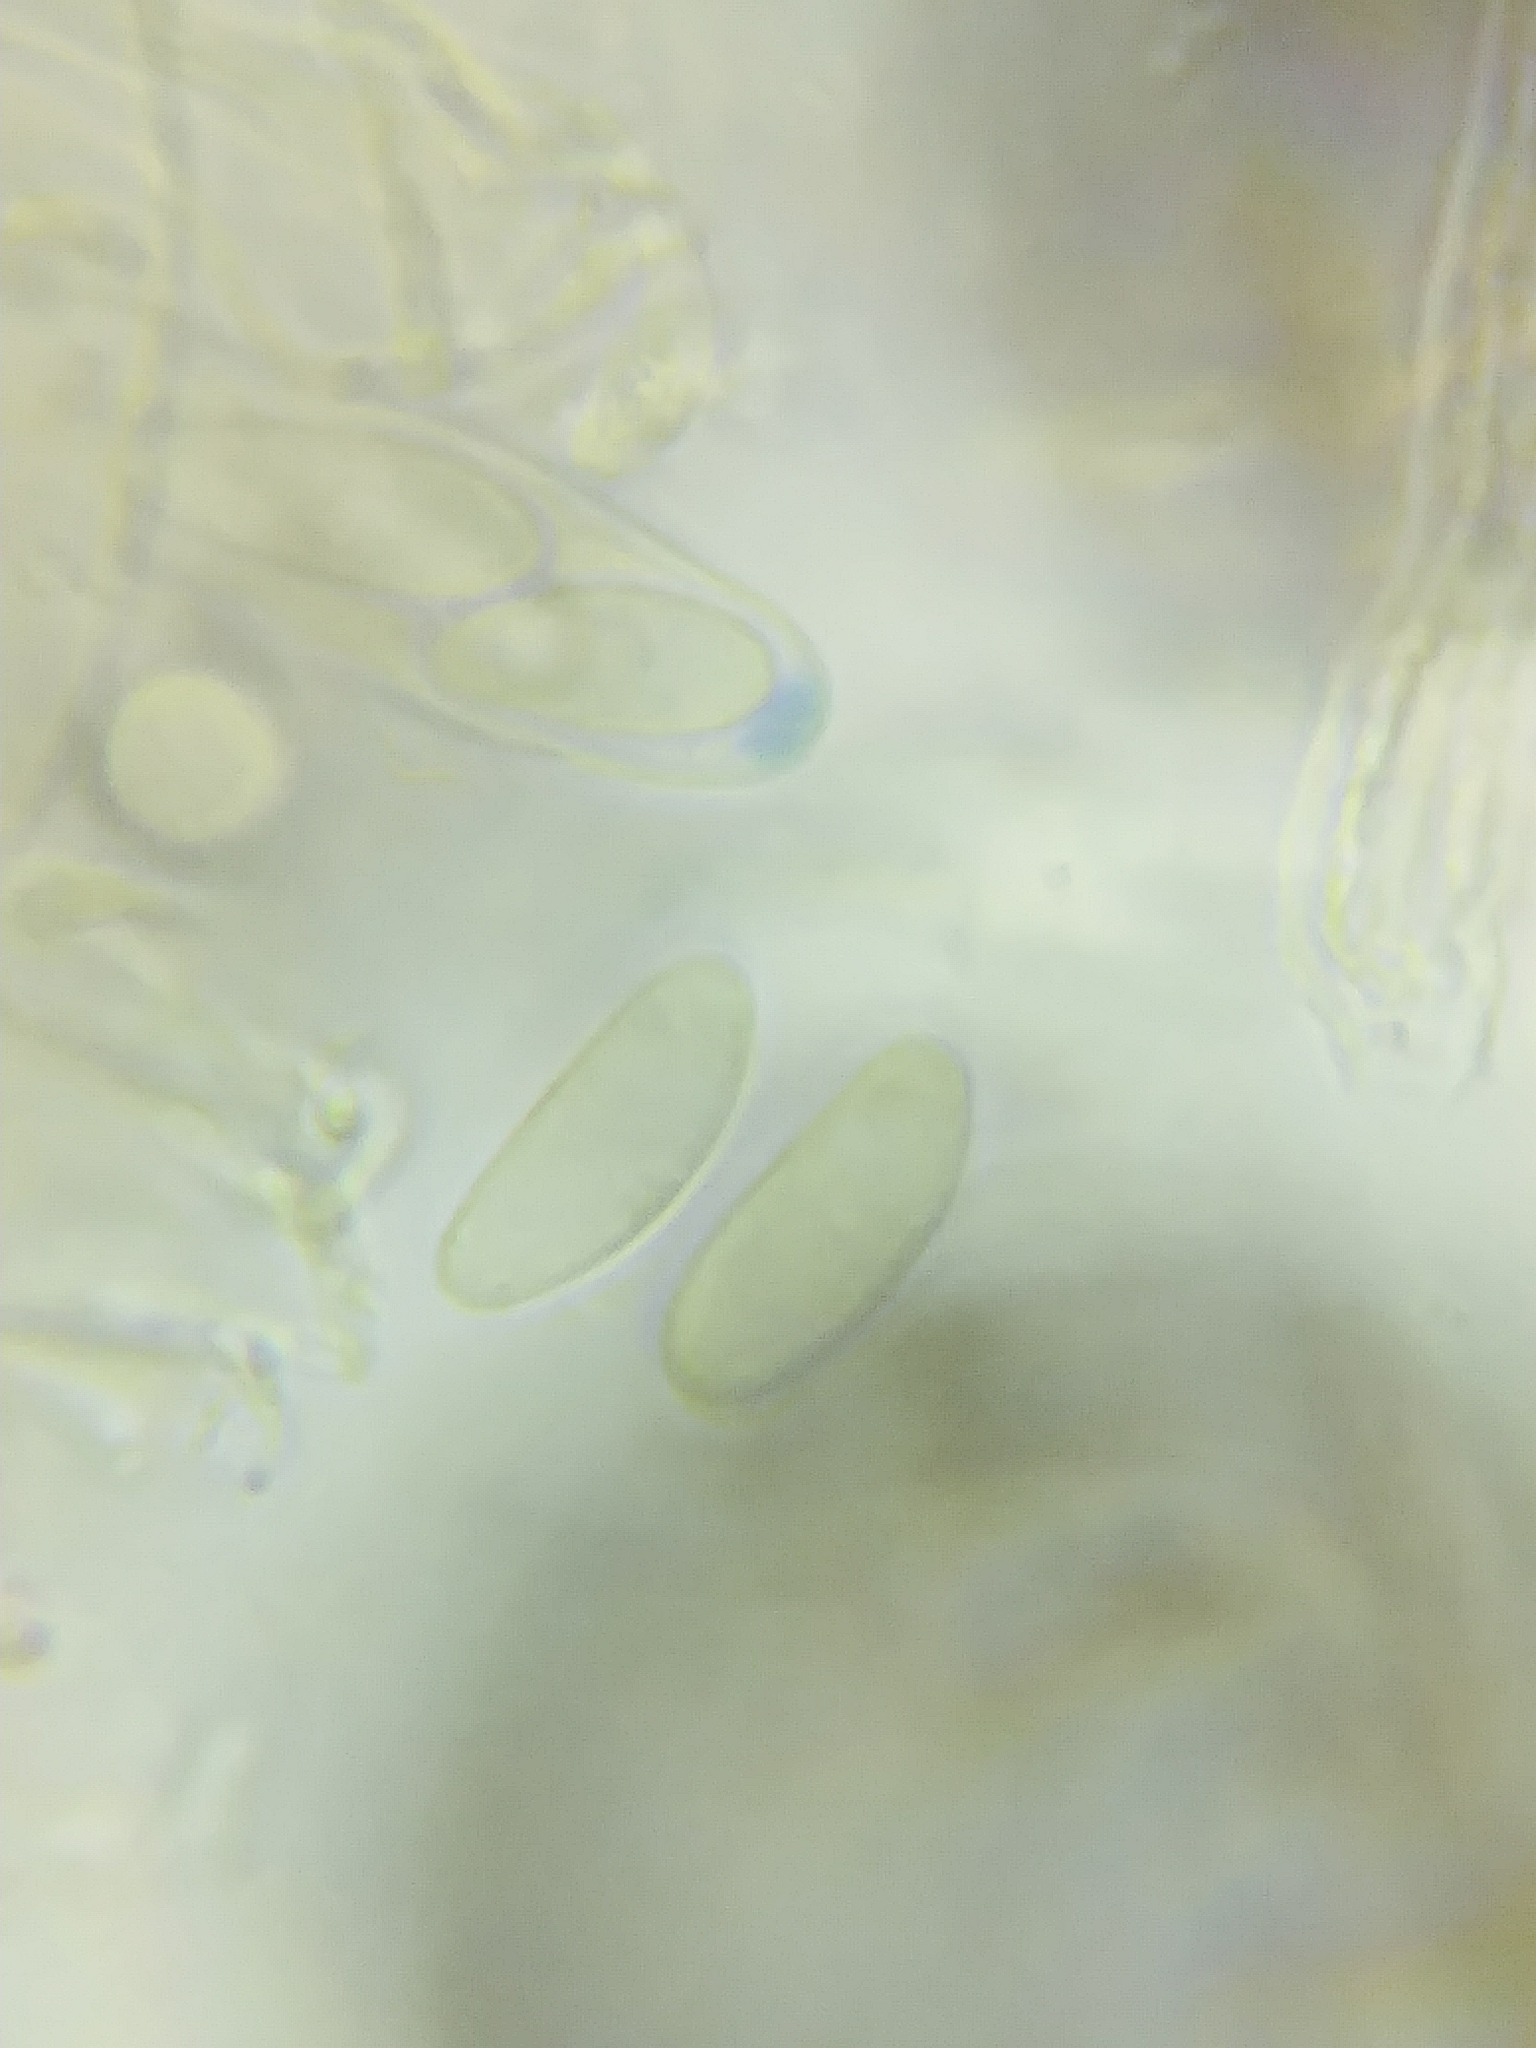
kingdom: Fungi
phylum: Ascomycota
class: Leotiomycetes
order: Helotiales
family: Dermateaceae
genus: Podophacidium
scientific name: Podophacidium xanthomelum
